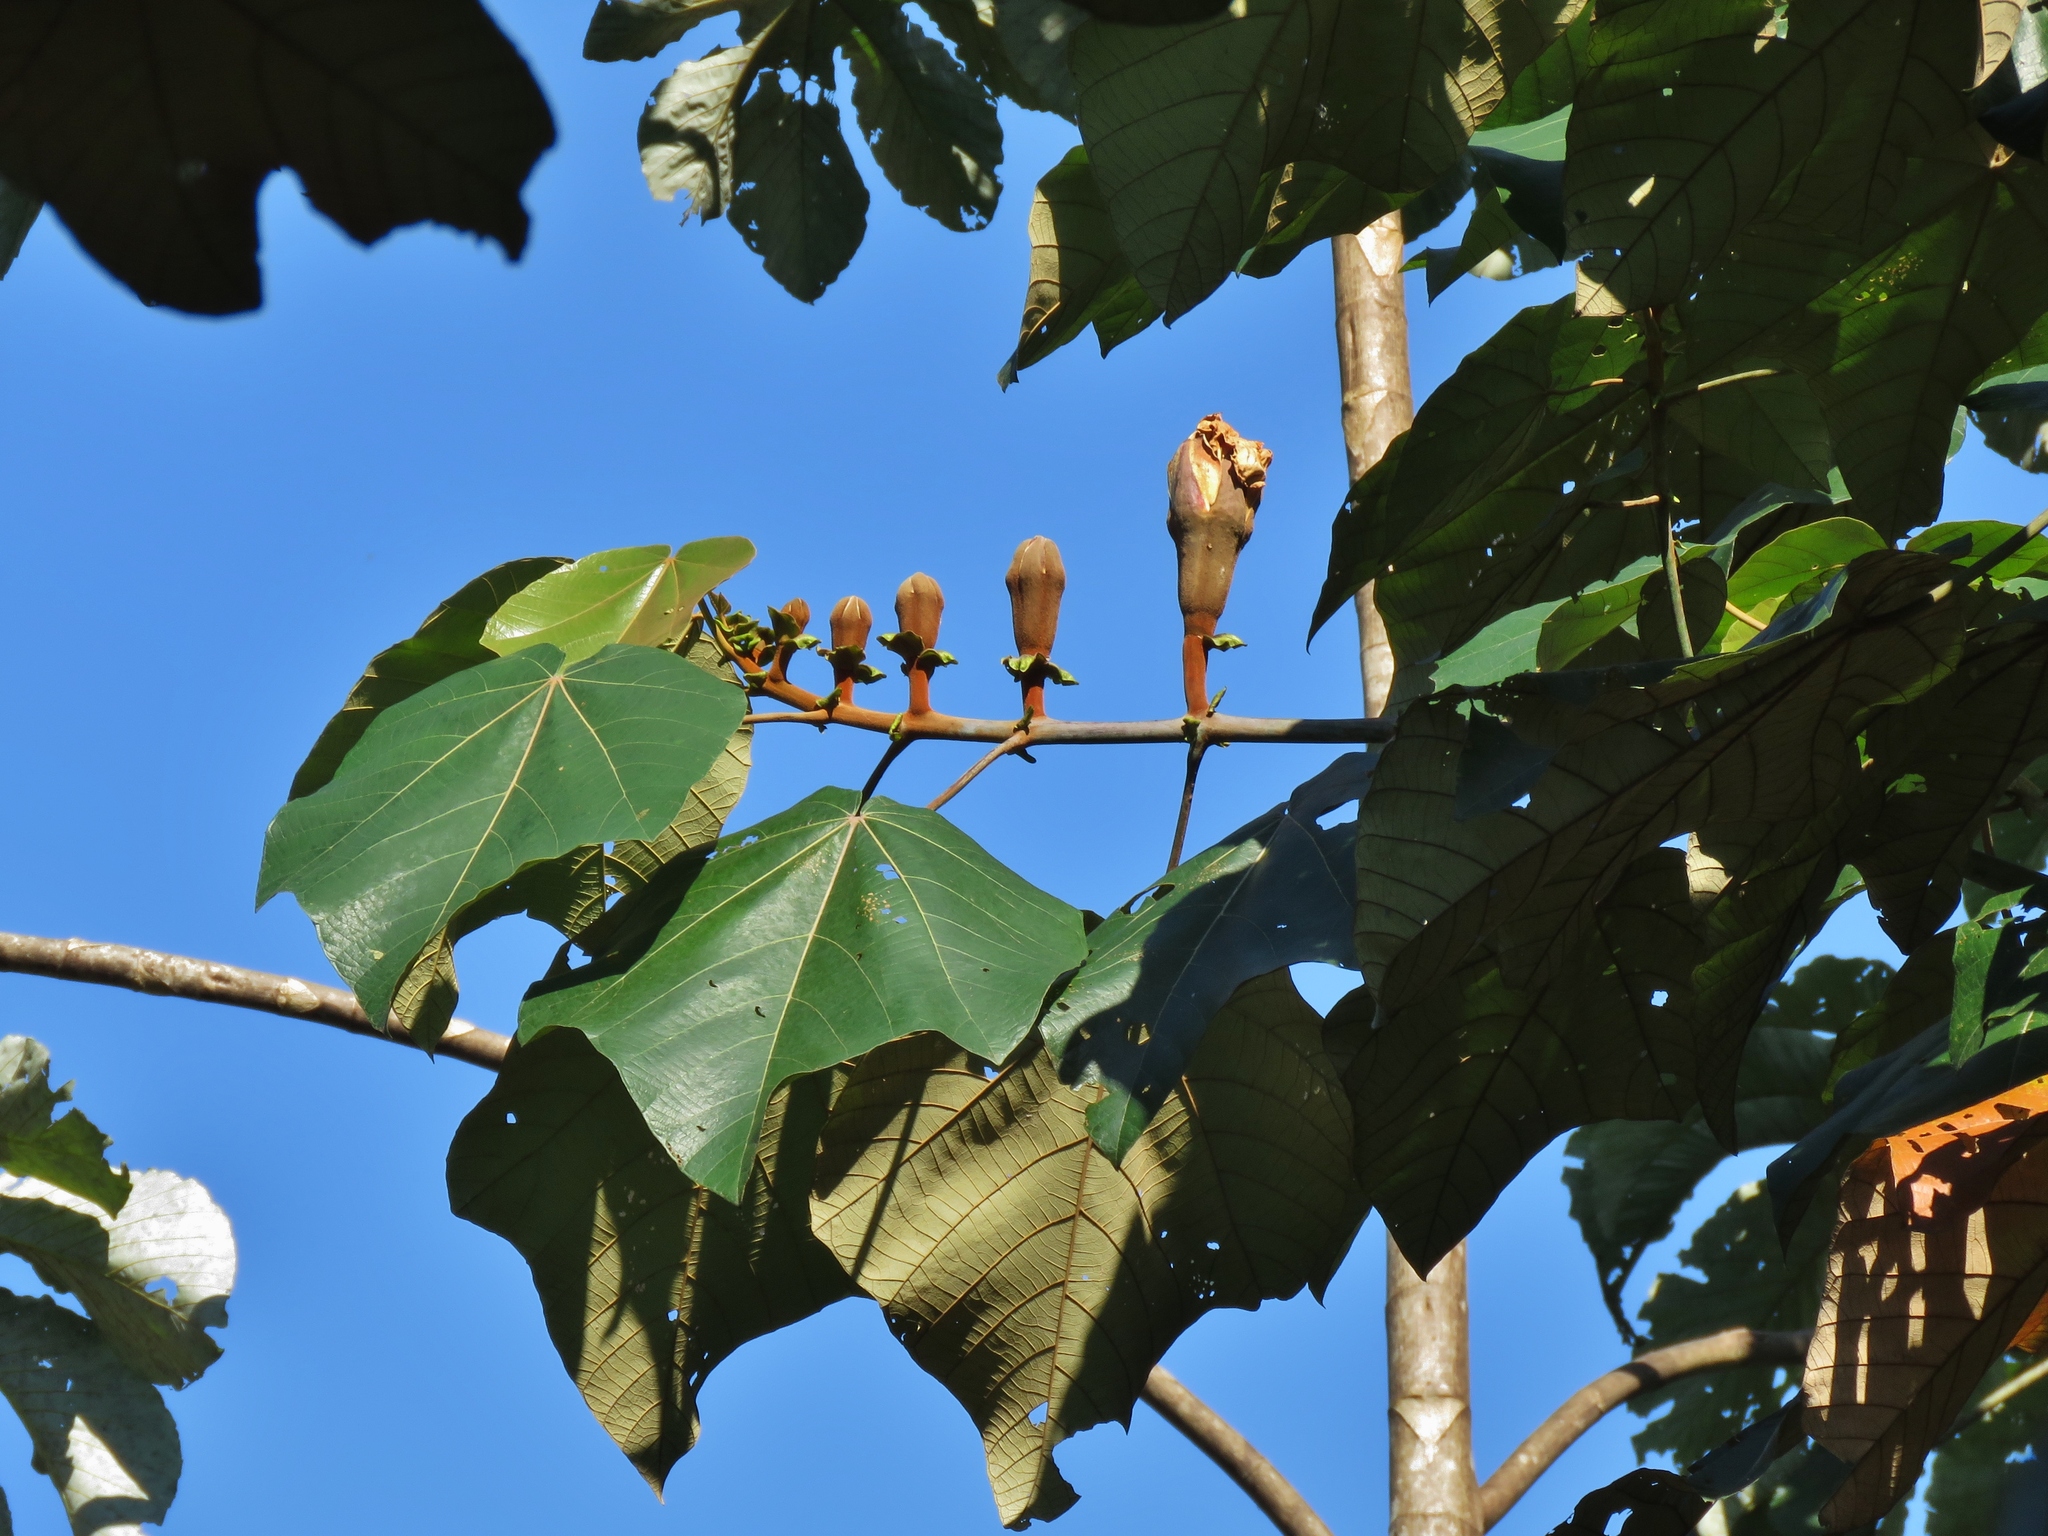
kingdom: Plantae
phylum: Tracheophyta
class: Magnoliopsida
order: Malvales
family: Malvaceae
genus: Ochroma
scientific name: Ochroma pyramidale
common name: Balsa
